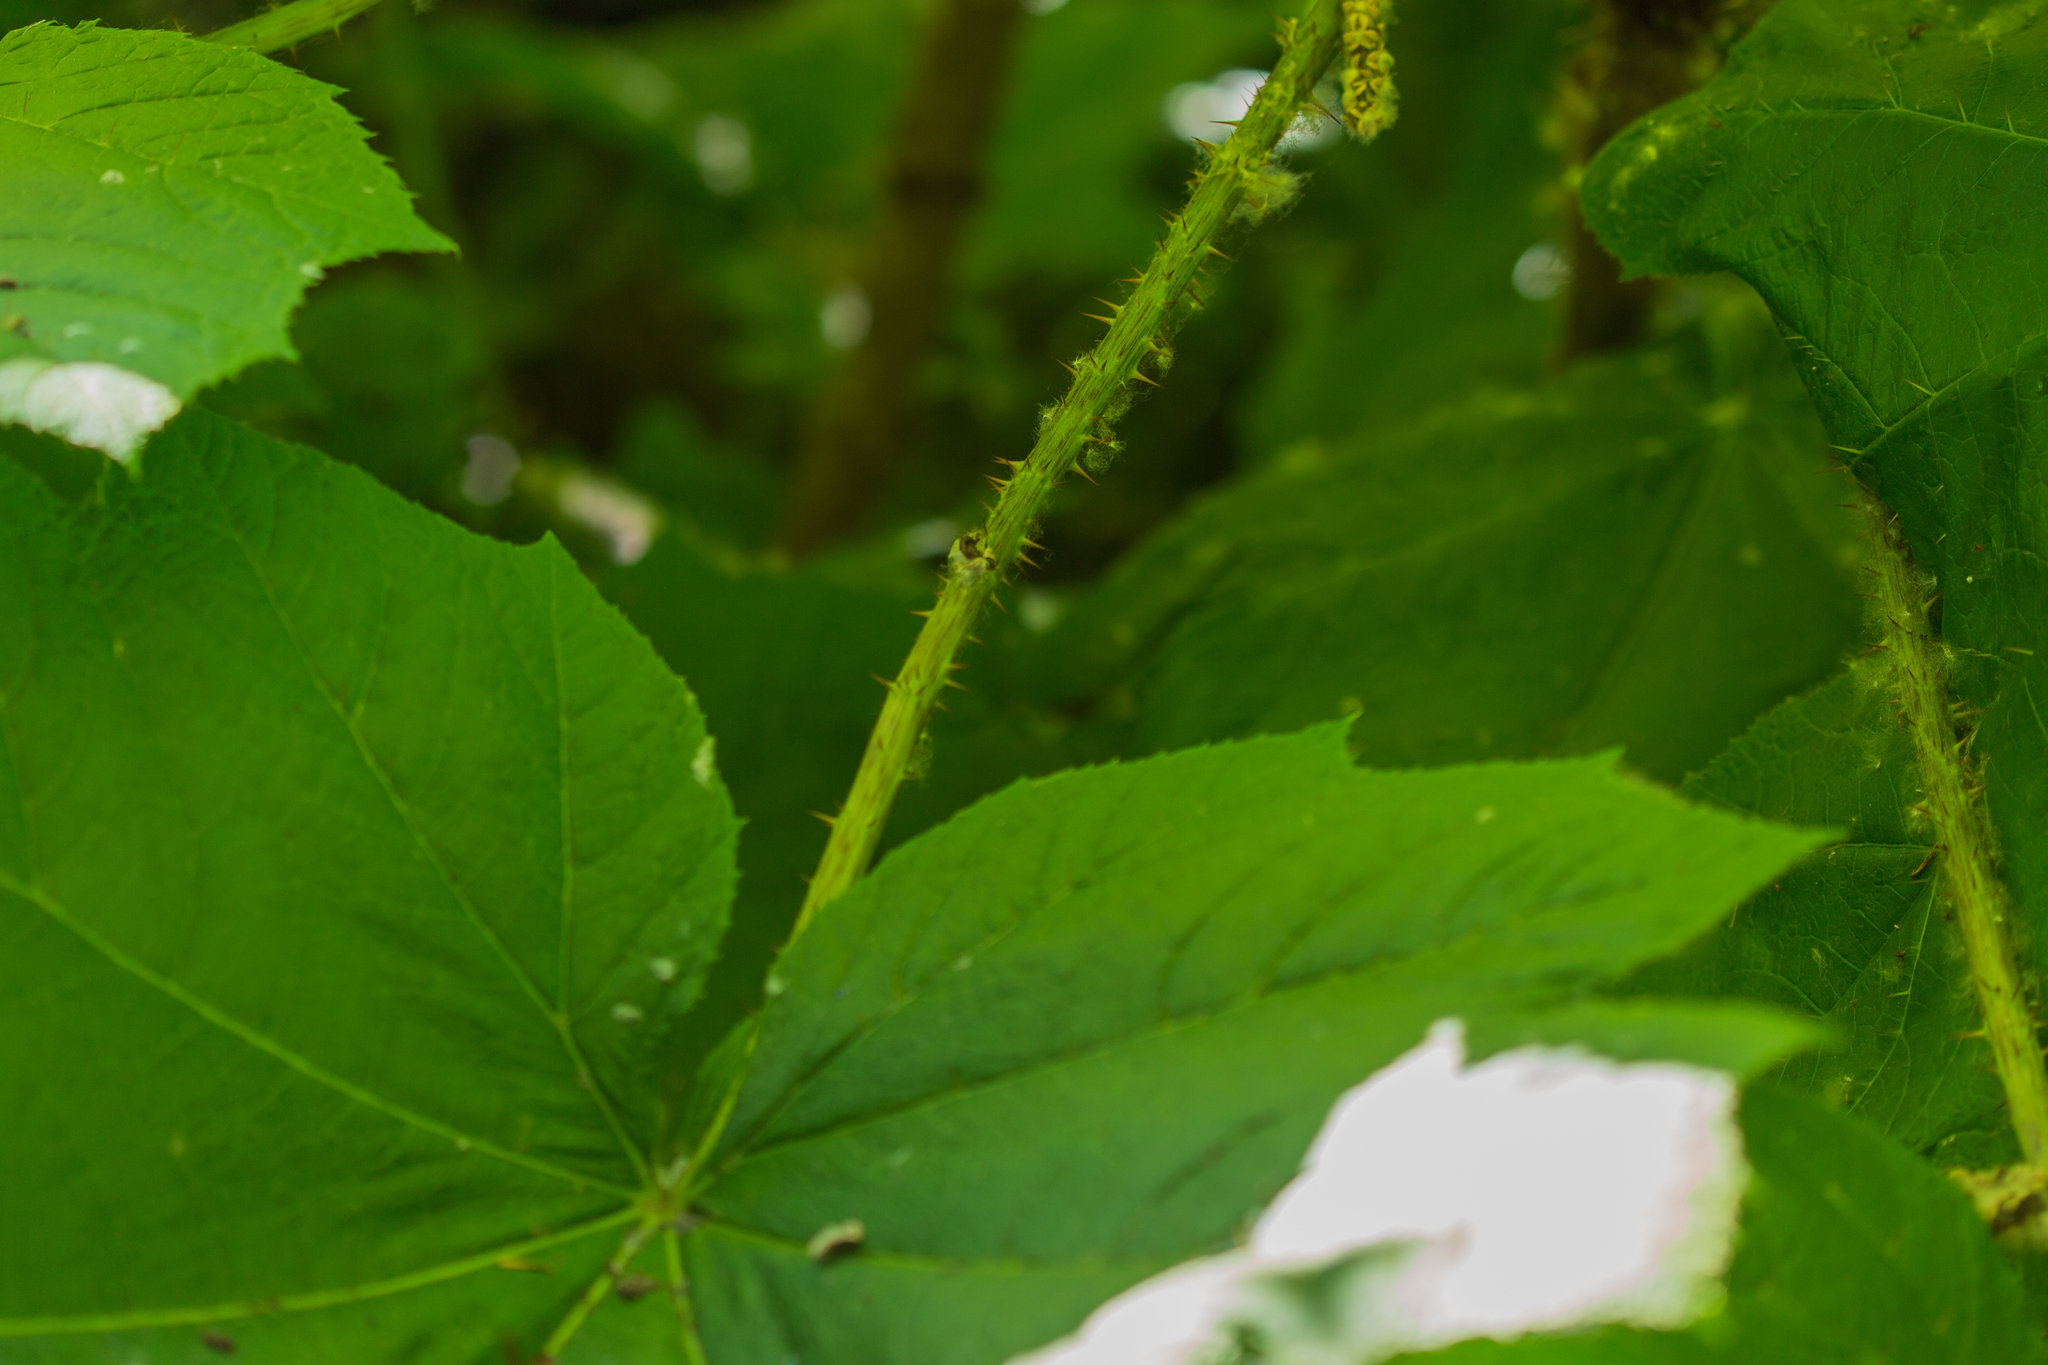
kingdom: Plantae
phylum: Tracheophyta
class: Magnoliopsida
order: Apiales
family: Araliaceae
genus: Oplopanax
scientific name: Oplopanax horridus
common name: Devil's walking-stick
